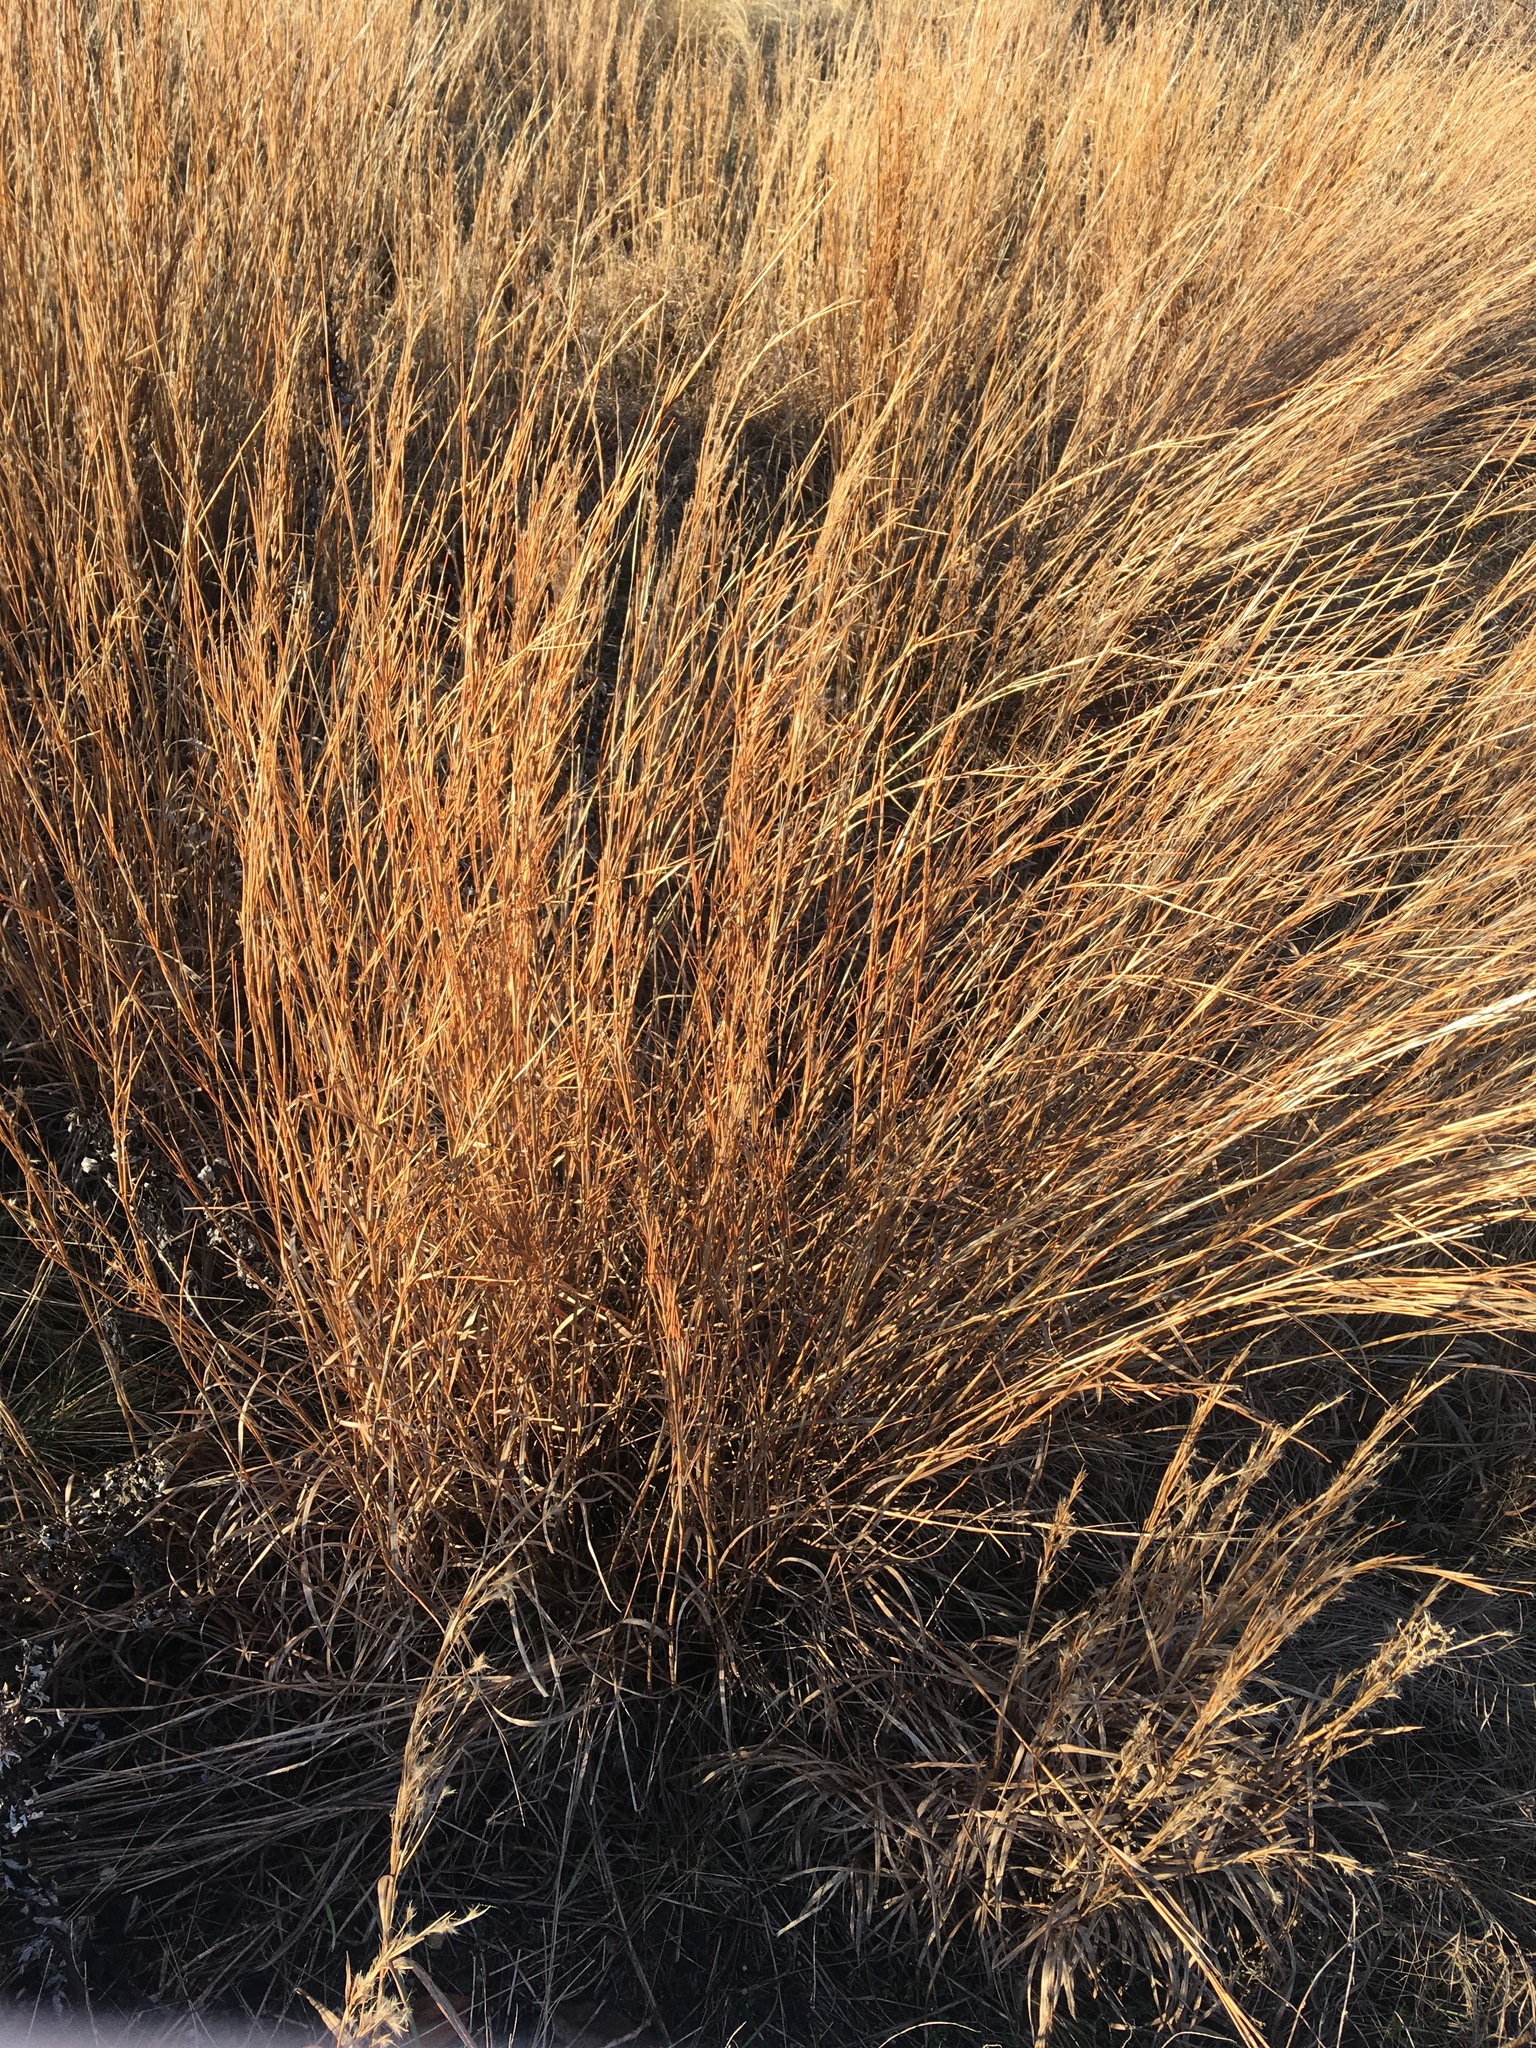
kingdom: Plantae
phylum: Tracheophyta
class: Liliopsida
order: Poales
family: Poaceae
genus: Schizachyrium
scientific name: Schizachyrium scoparium
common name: Little bluestem
